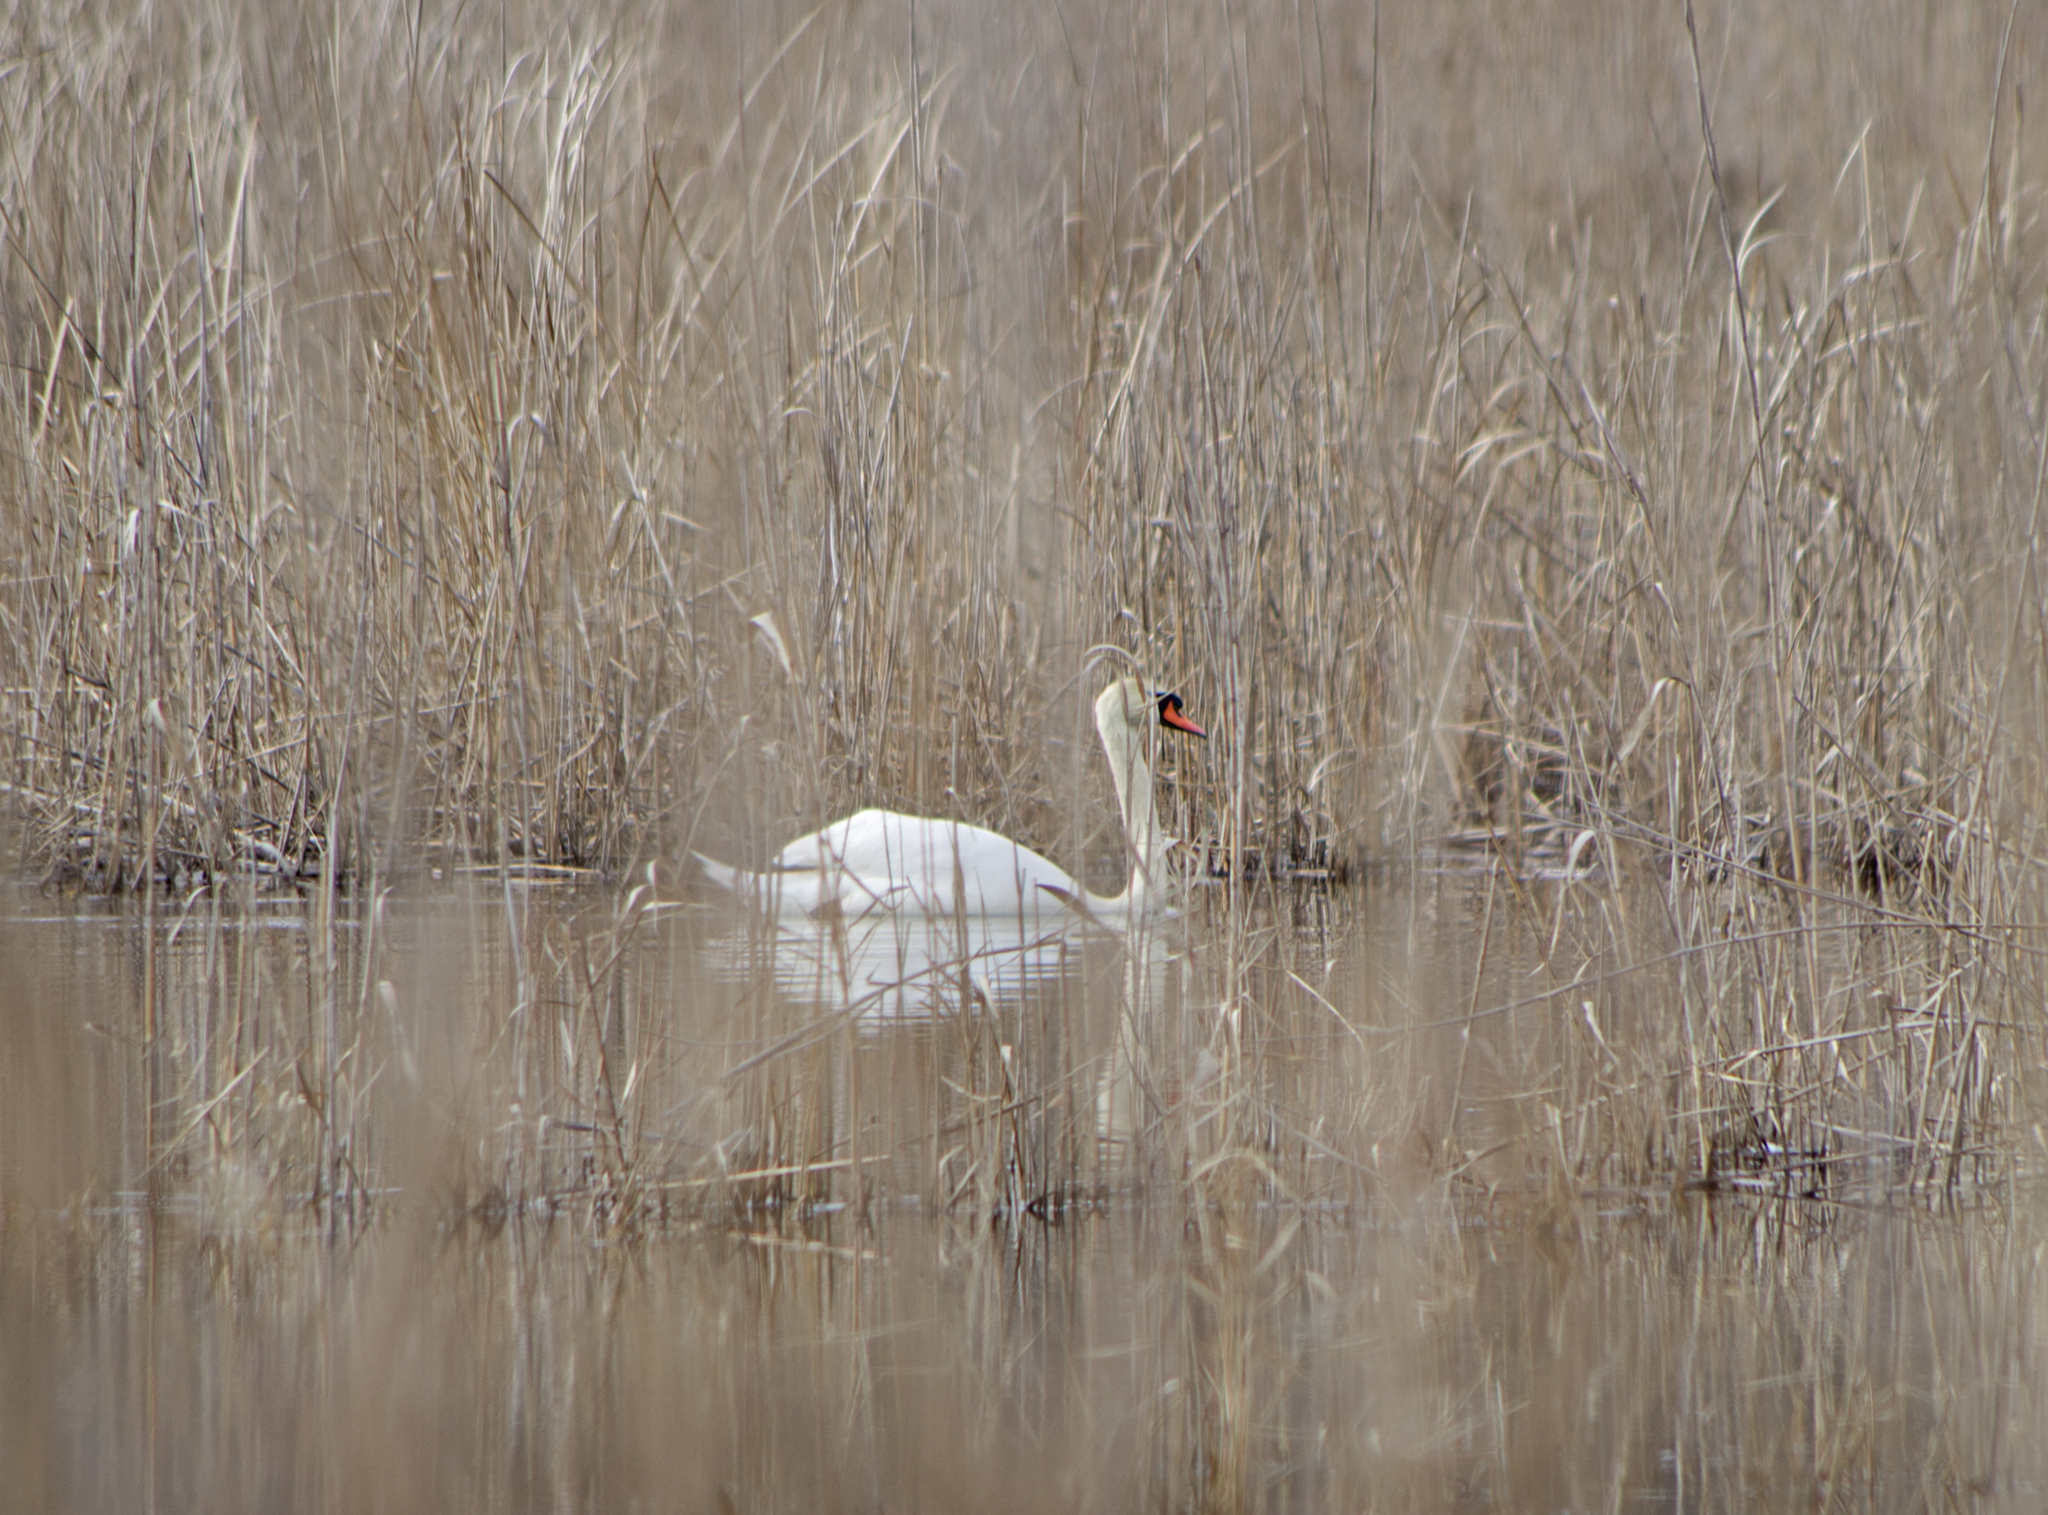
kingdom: Animalia
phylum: Chordata
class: Aves
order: Anseriformes
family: Anatidae
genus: Cygnus
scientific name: Cygnus olor
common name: Mute swan
